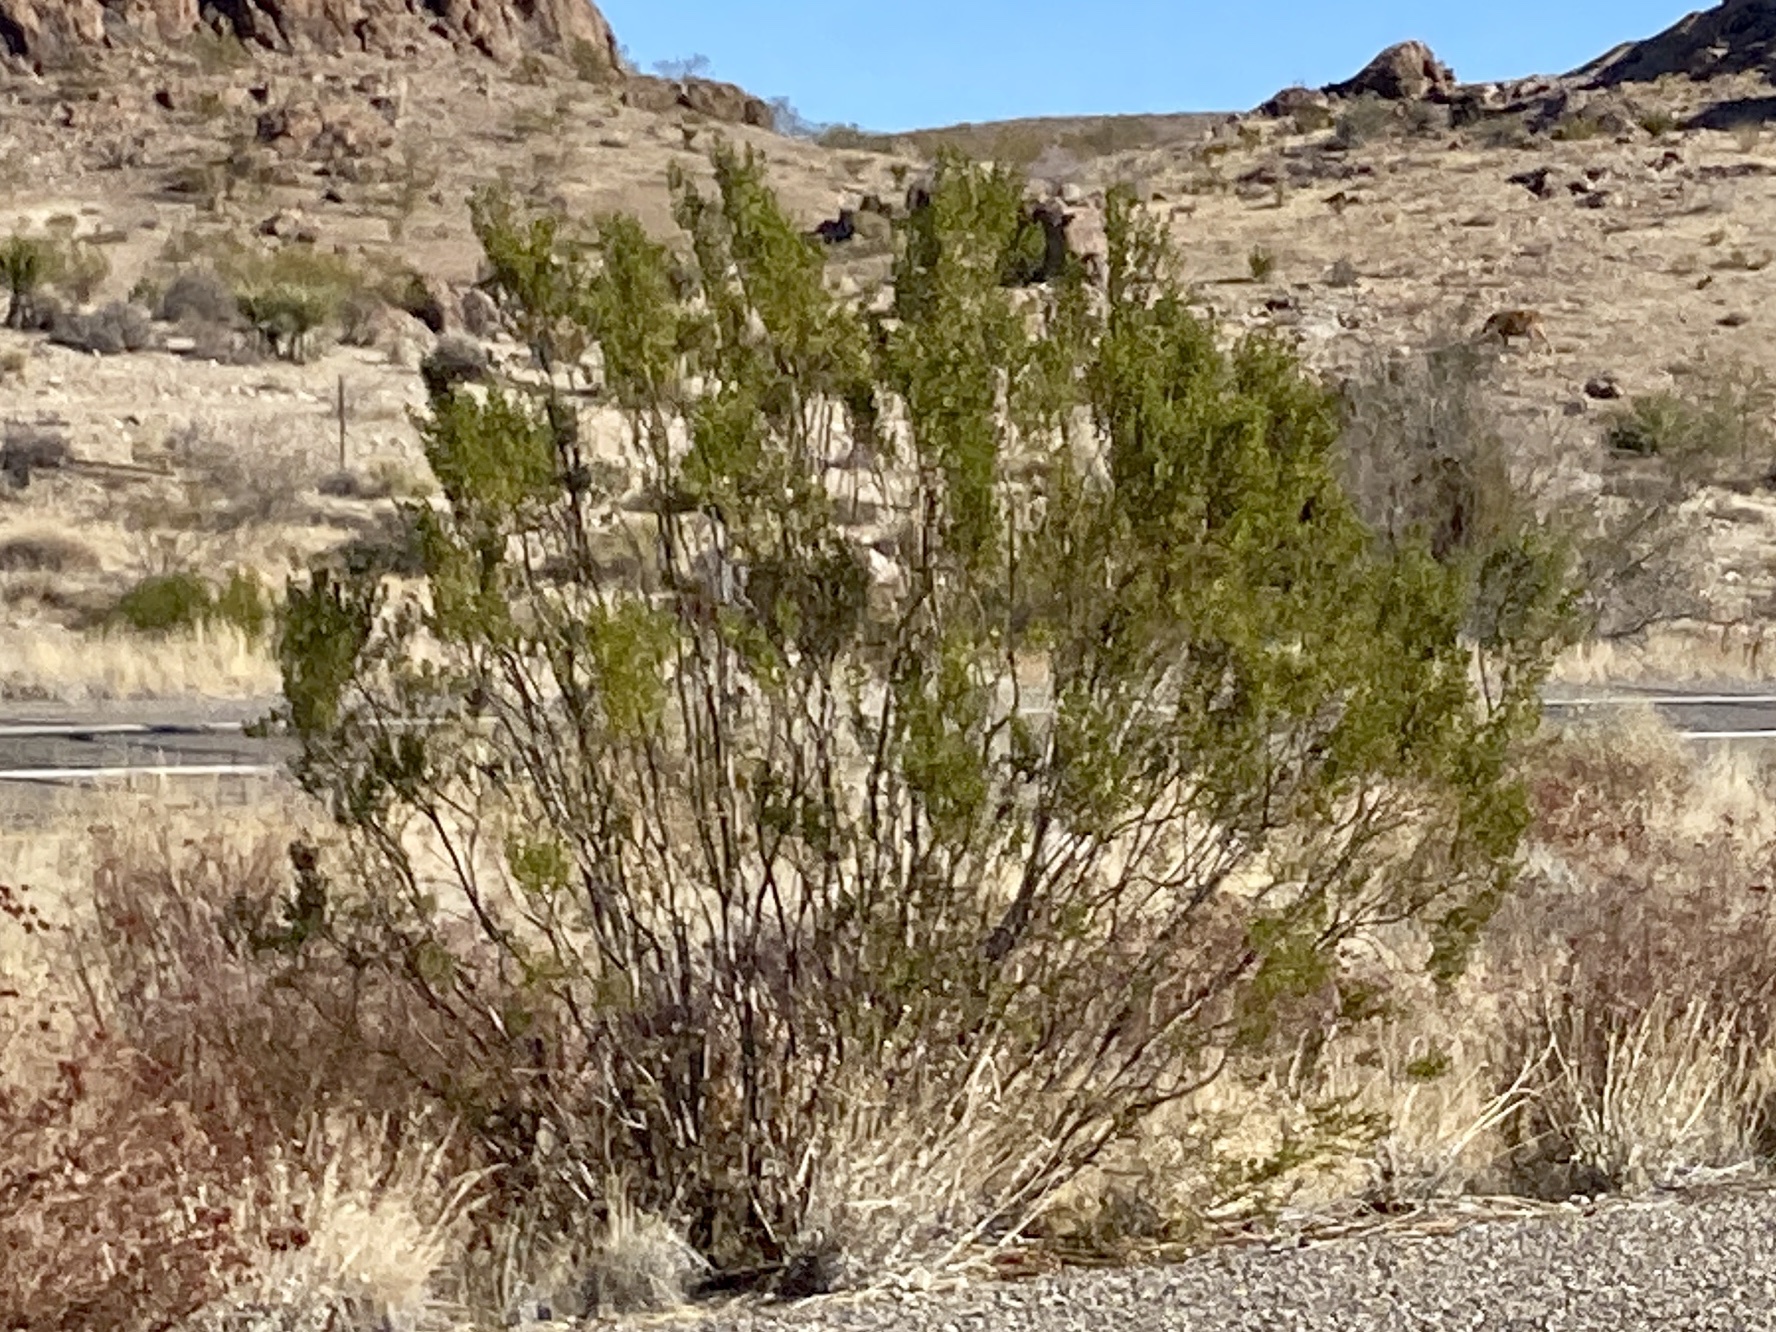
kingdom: Plantae
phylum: Tracheophyta
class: Magnoliopsida
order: Zygophyllales
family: Zygophyllaceae
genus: Larrea
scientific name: Larrea tridentata
